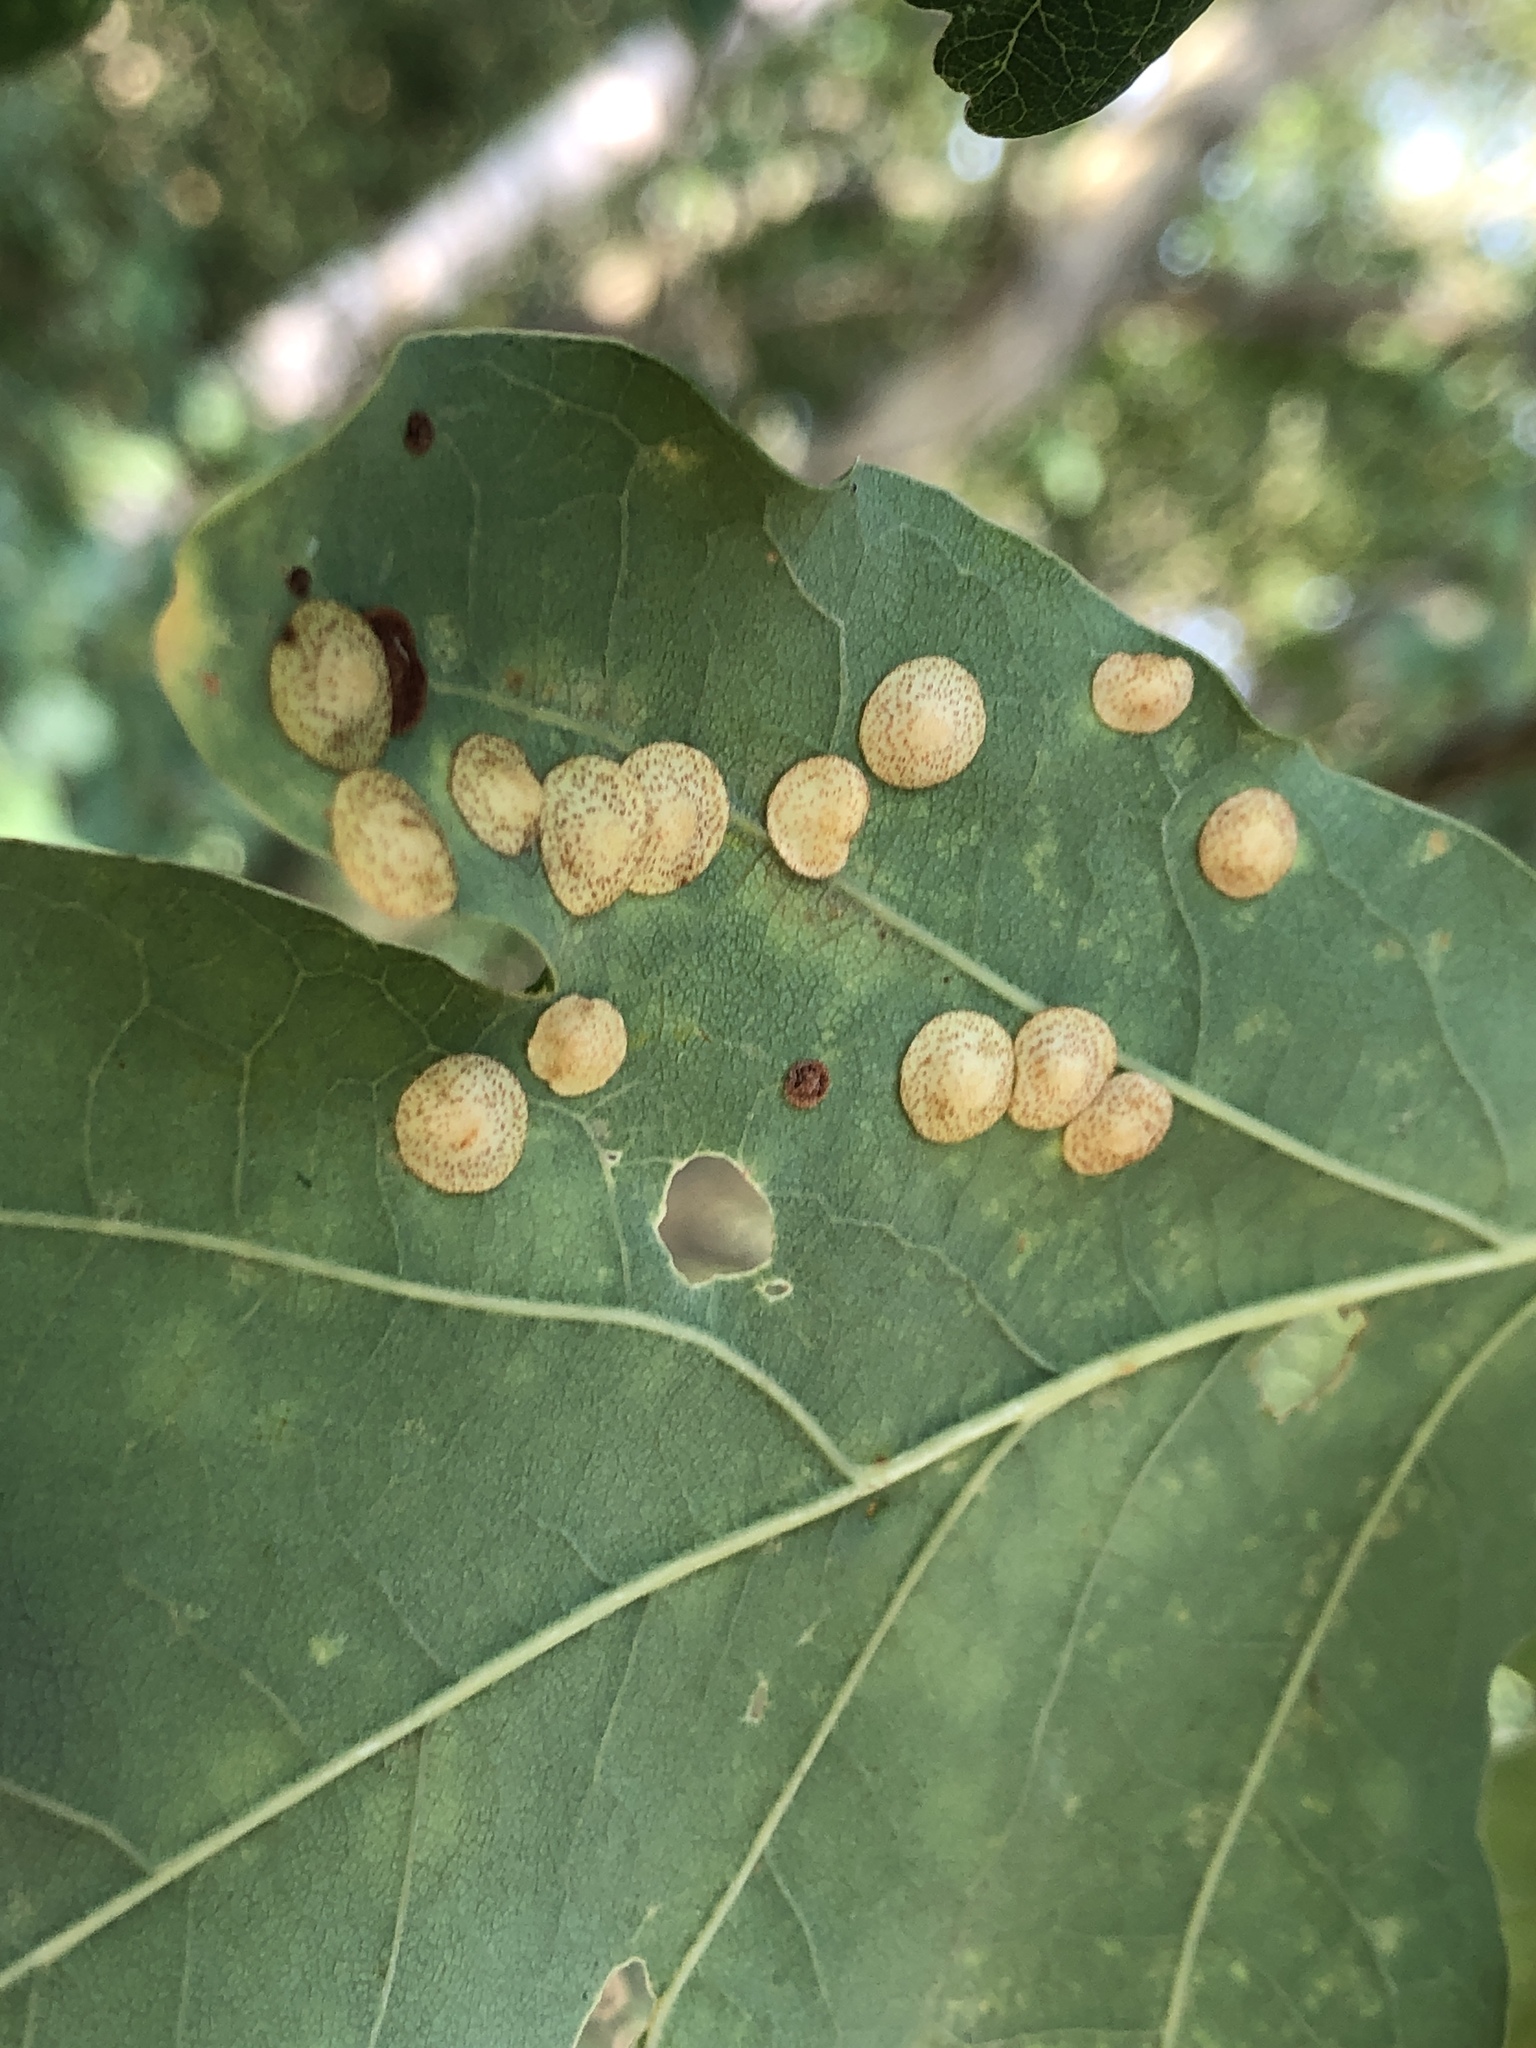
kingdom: Animalia
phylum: Arthropoda
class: Insecta
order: Hymenoptera
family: Cynipidae
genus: Neuroterus
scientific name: Neuroterus quercusbaccarum
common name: Common spangle gall
